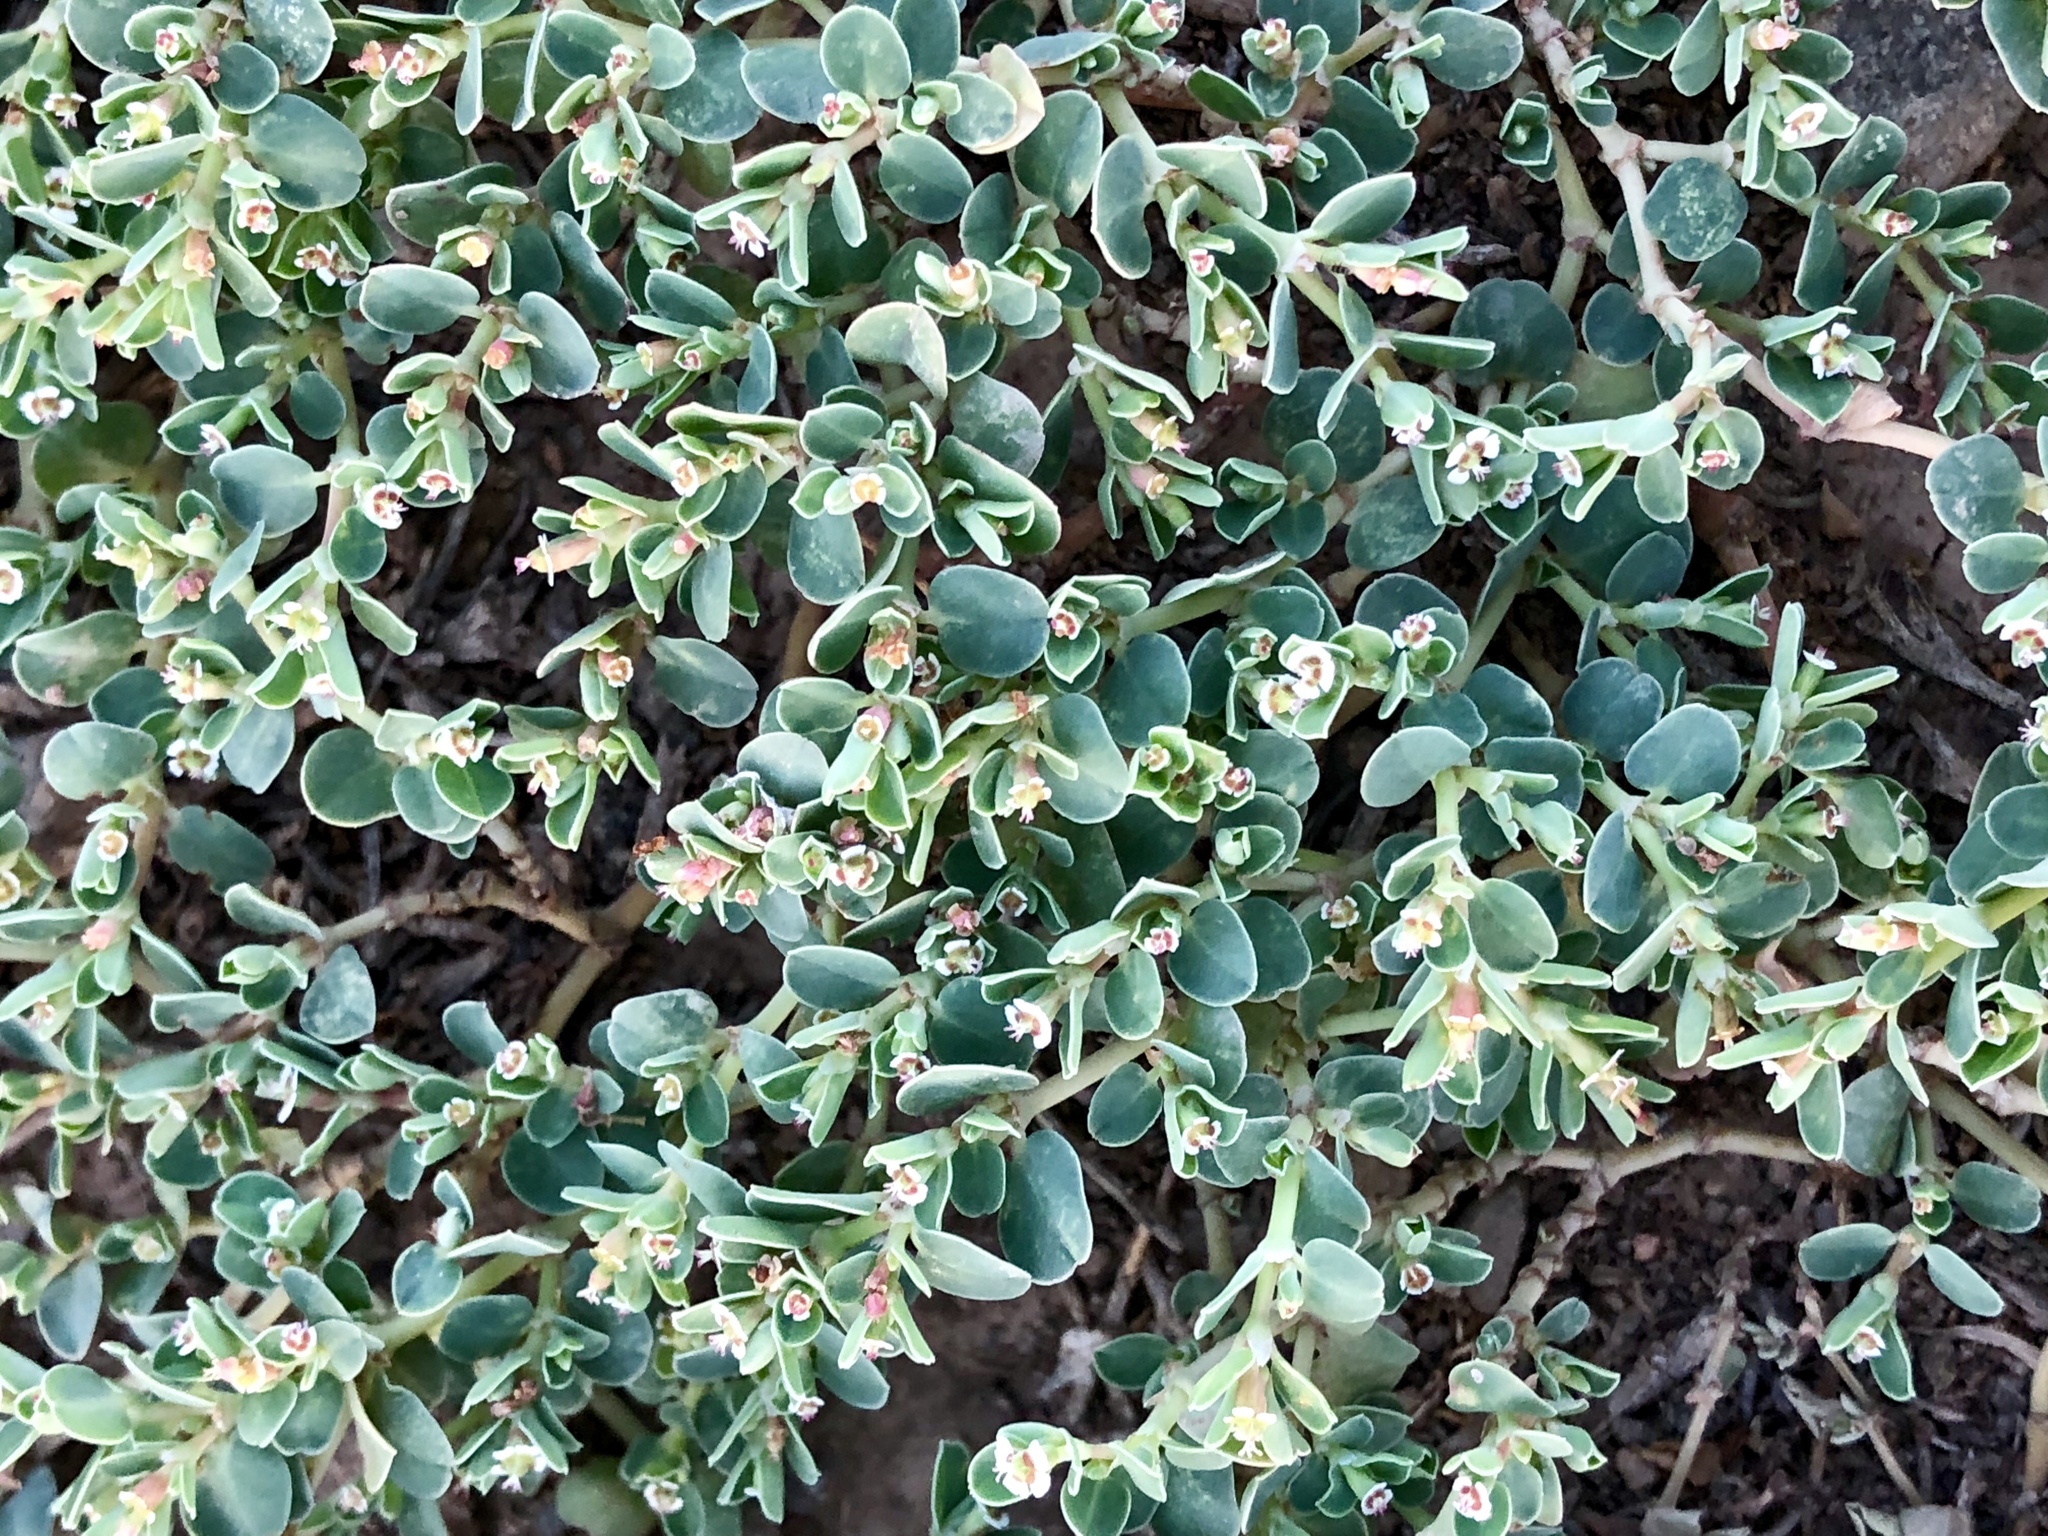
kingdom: Plantae
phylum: Tracheophyta
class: Magnoliopsida
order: Malpighiales
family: Euphorbiaceae
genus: Euphorbia
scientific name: Euphorbia albomarginata
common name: Whitemargin sandmat
